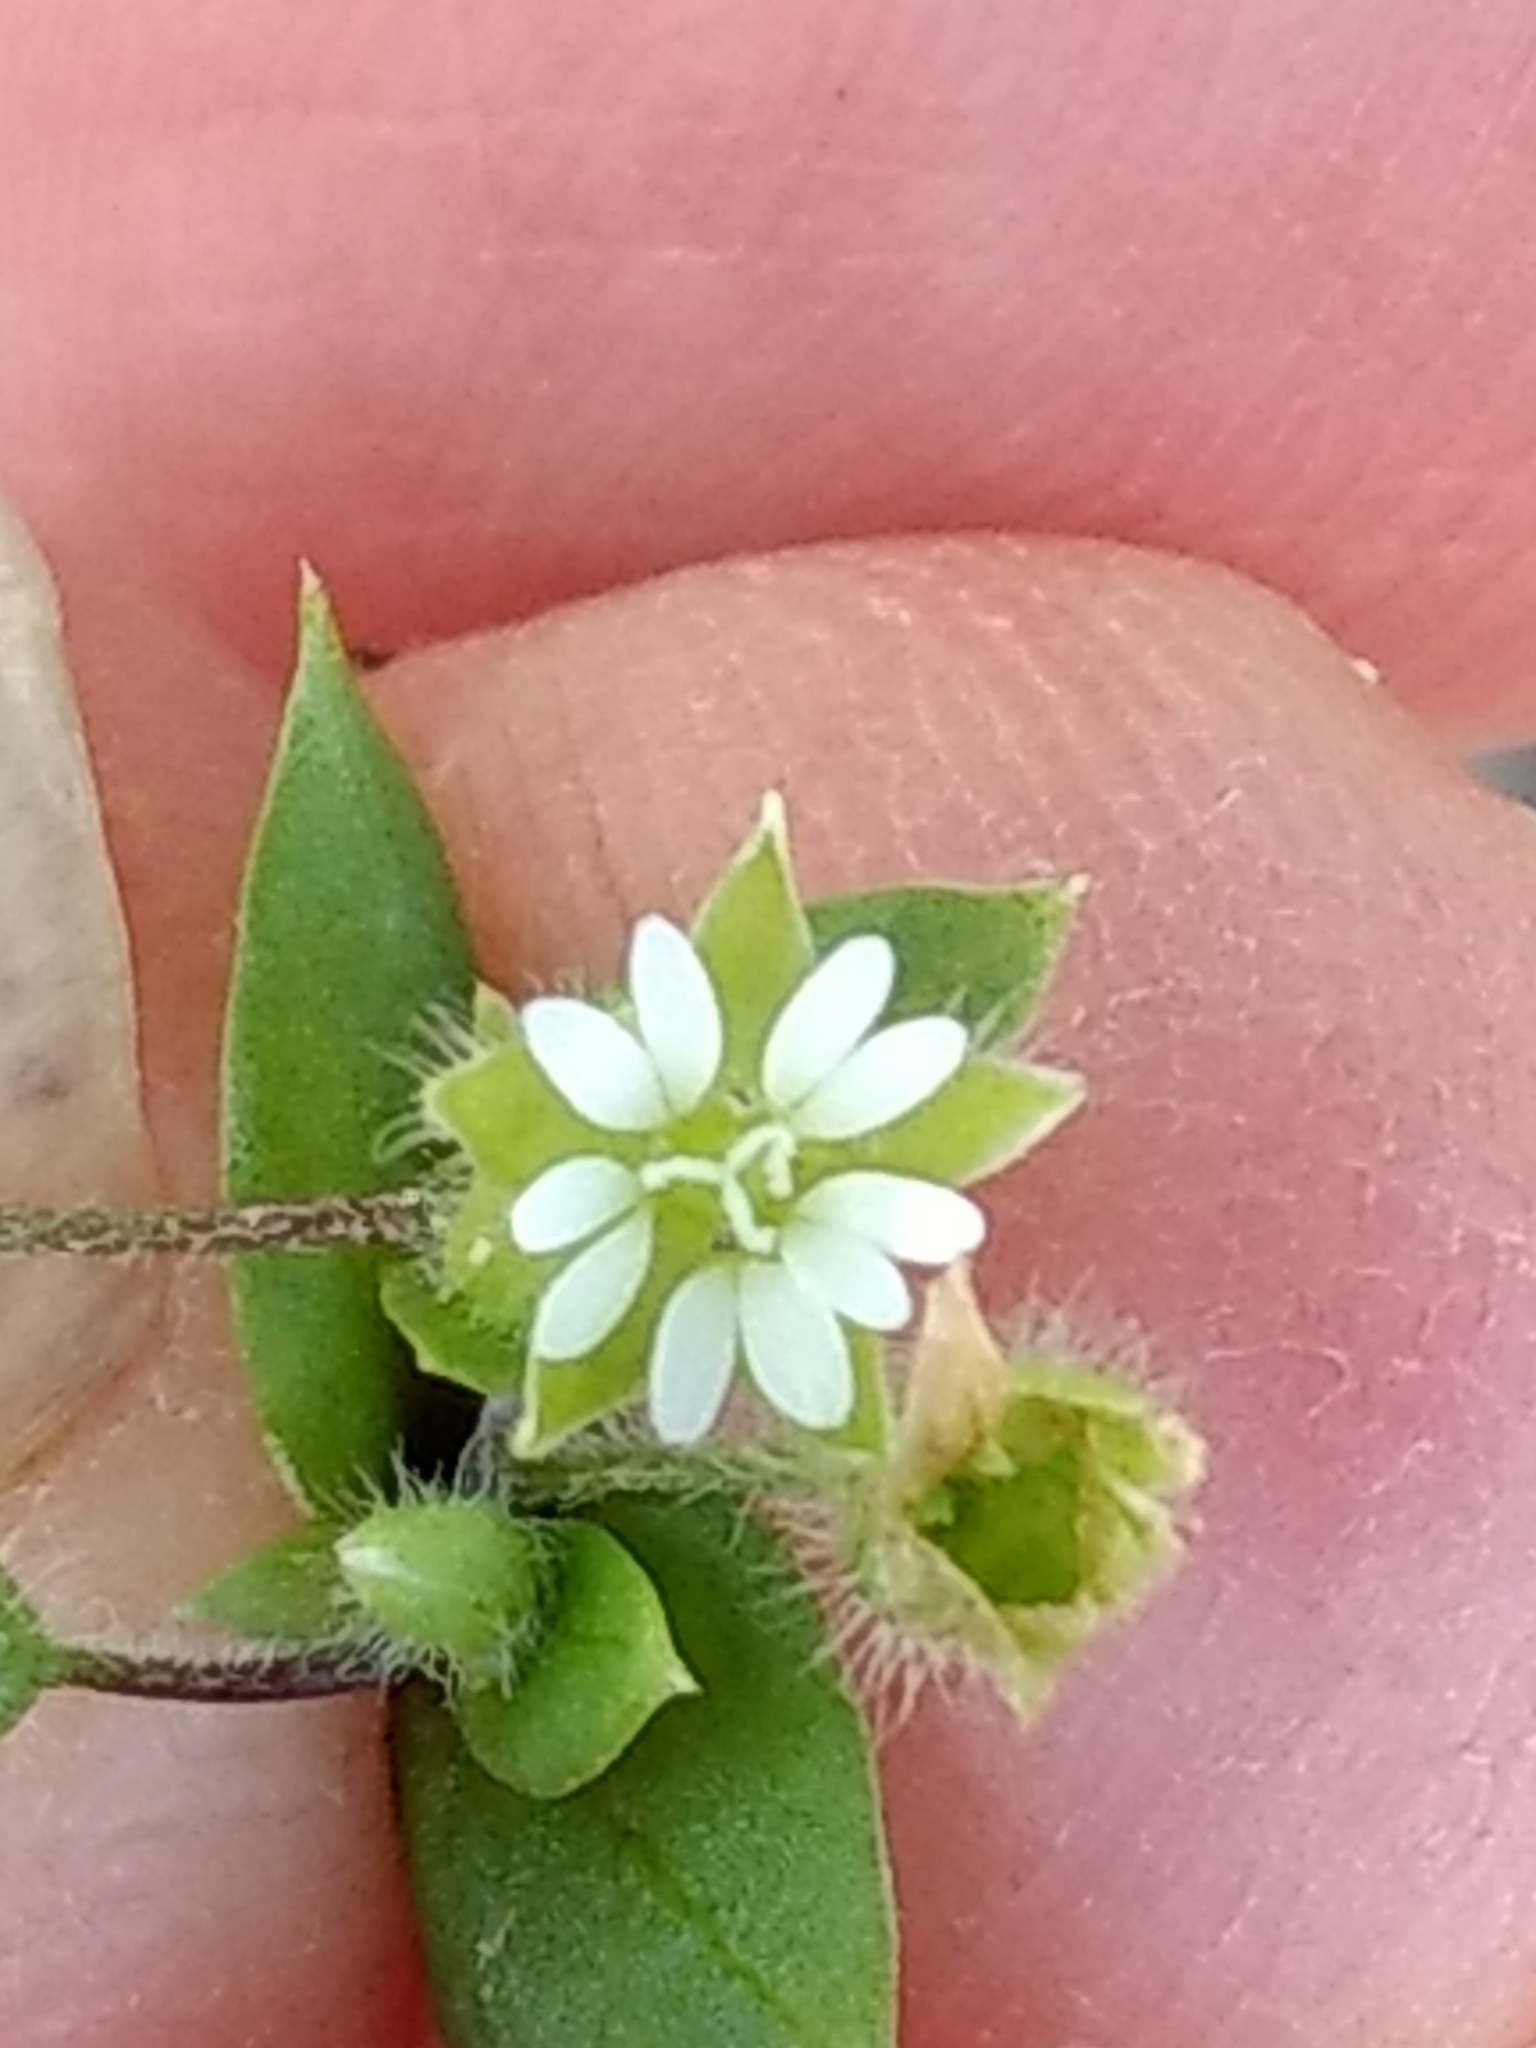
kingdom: Plantae
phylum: Tracheophyta
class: Magnoliopsida
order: Caryophyllales
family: Caryophyllaceae
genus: Stellaria
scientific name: Stellaria media
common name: Common chickweed
